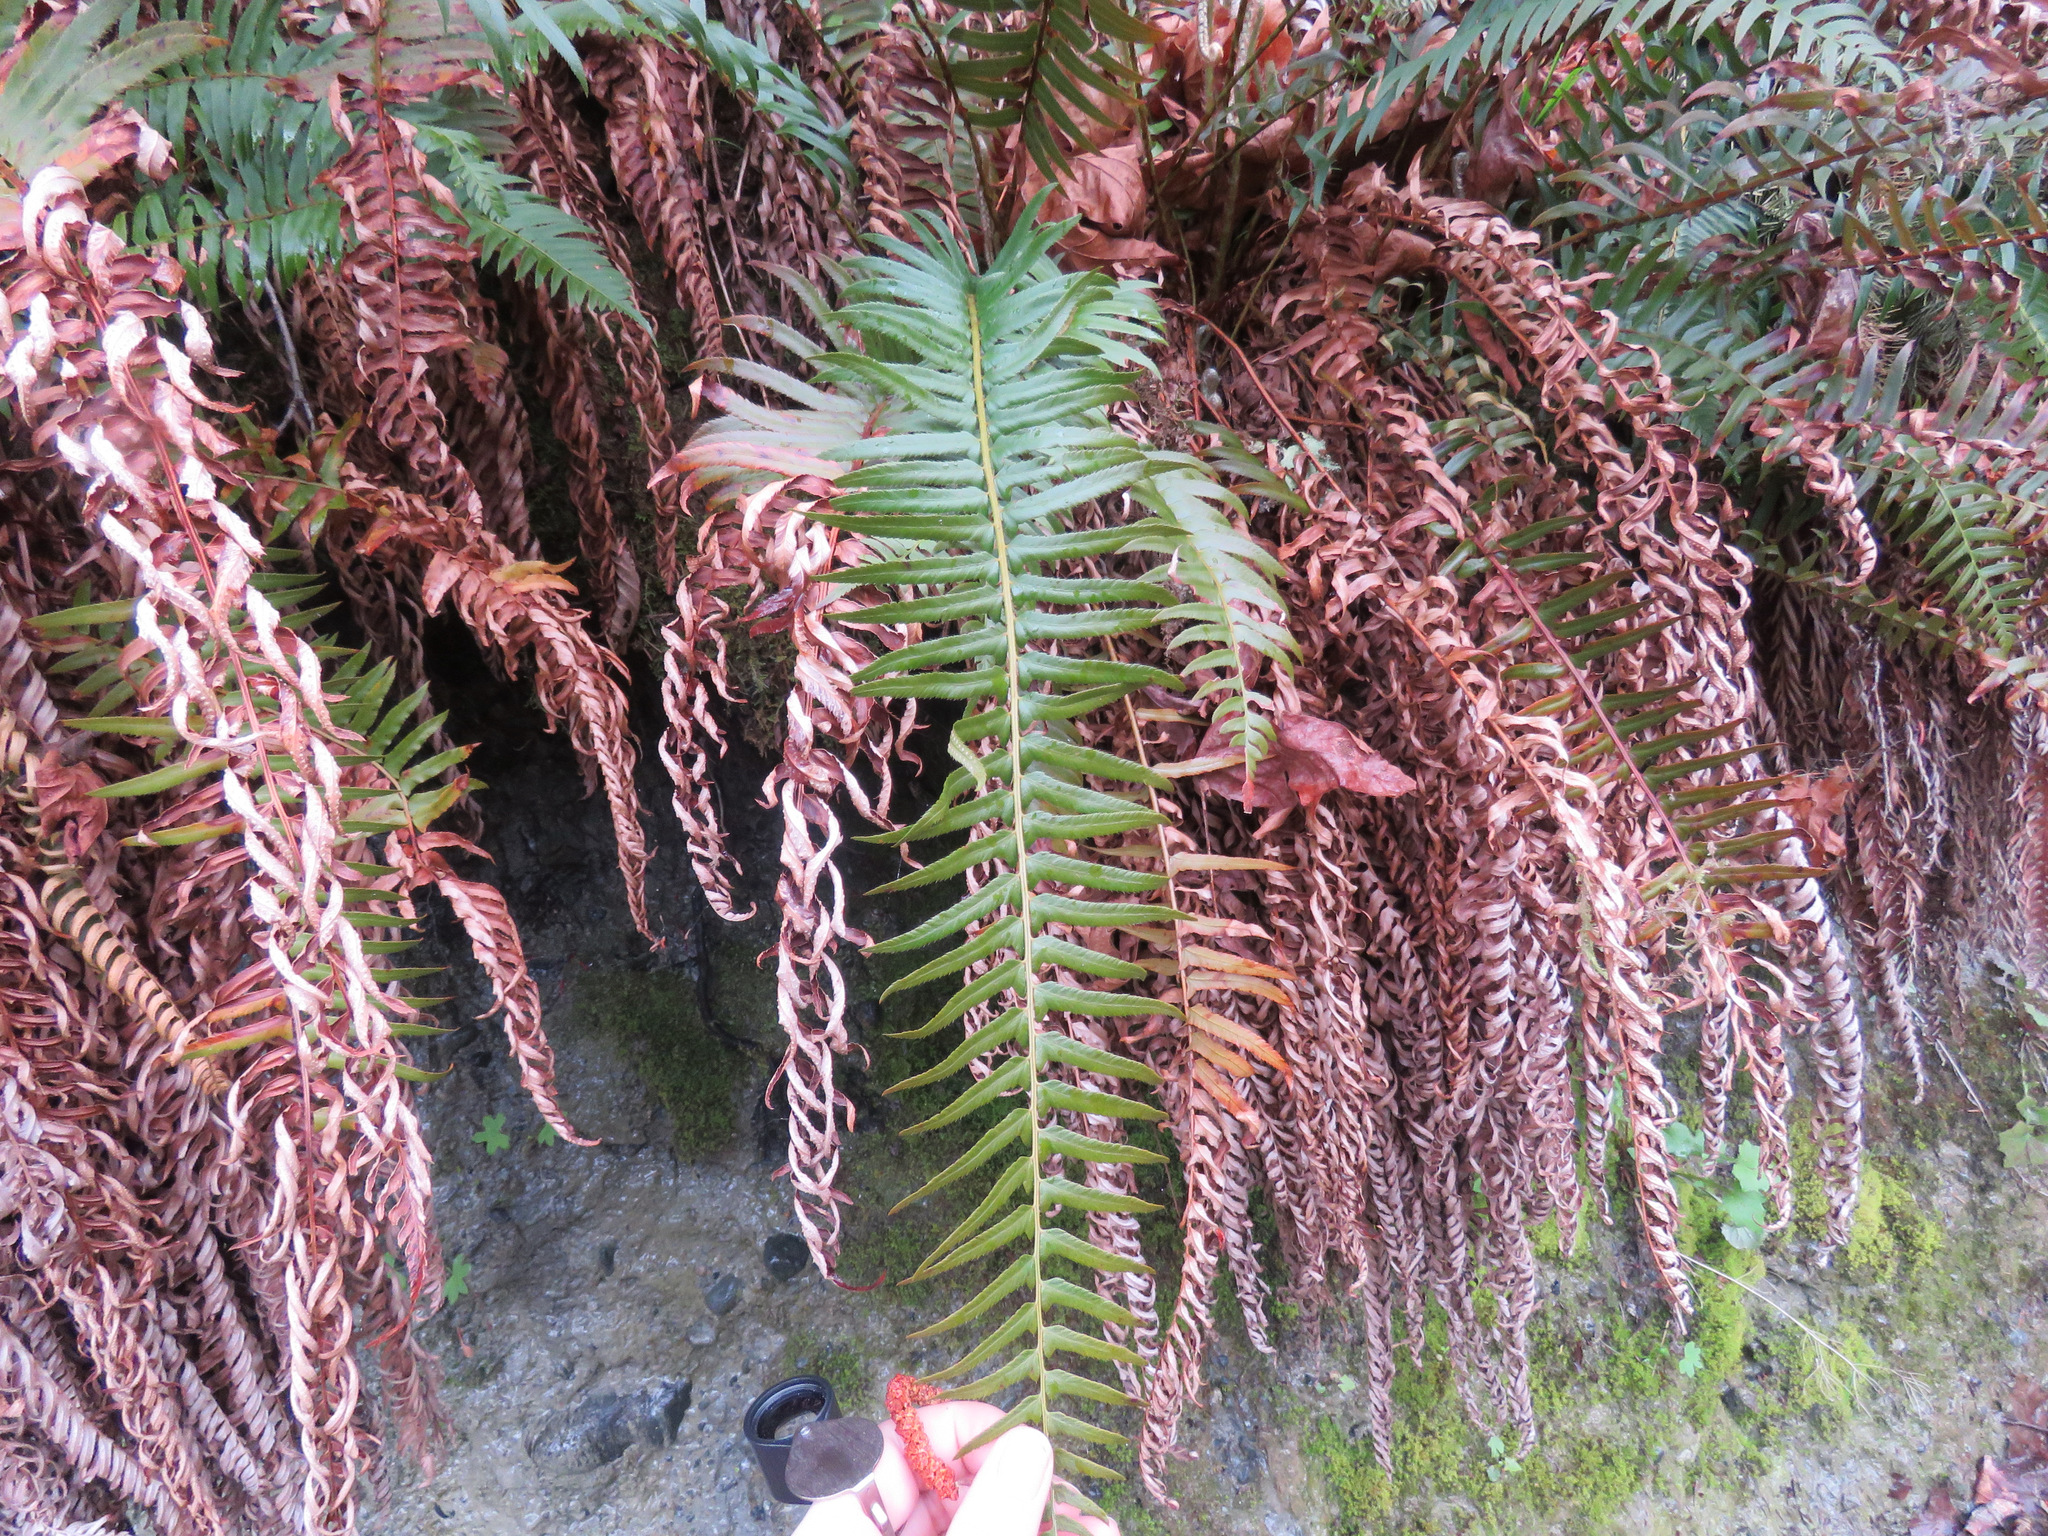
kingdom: Plantae
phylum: Tracheophyta
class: Polypodiopsida
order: Polypodiales
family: Dryopteridaceae
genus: Polystichum
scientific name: Polystichum munitum
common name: Western sword-fern
